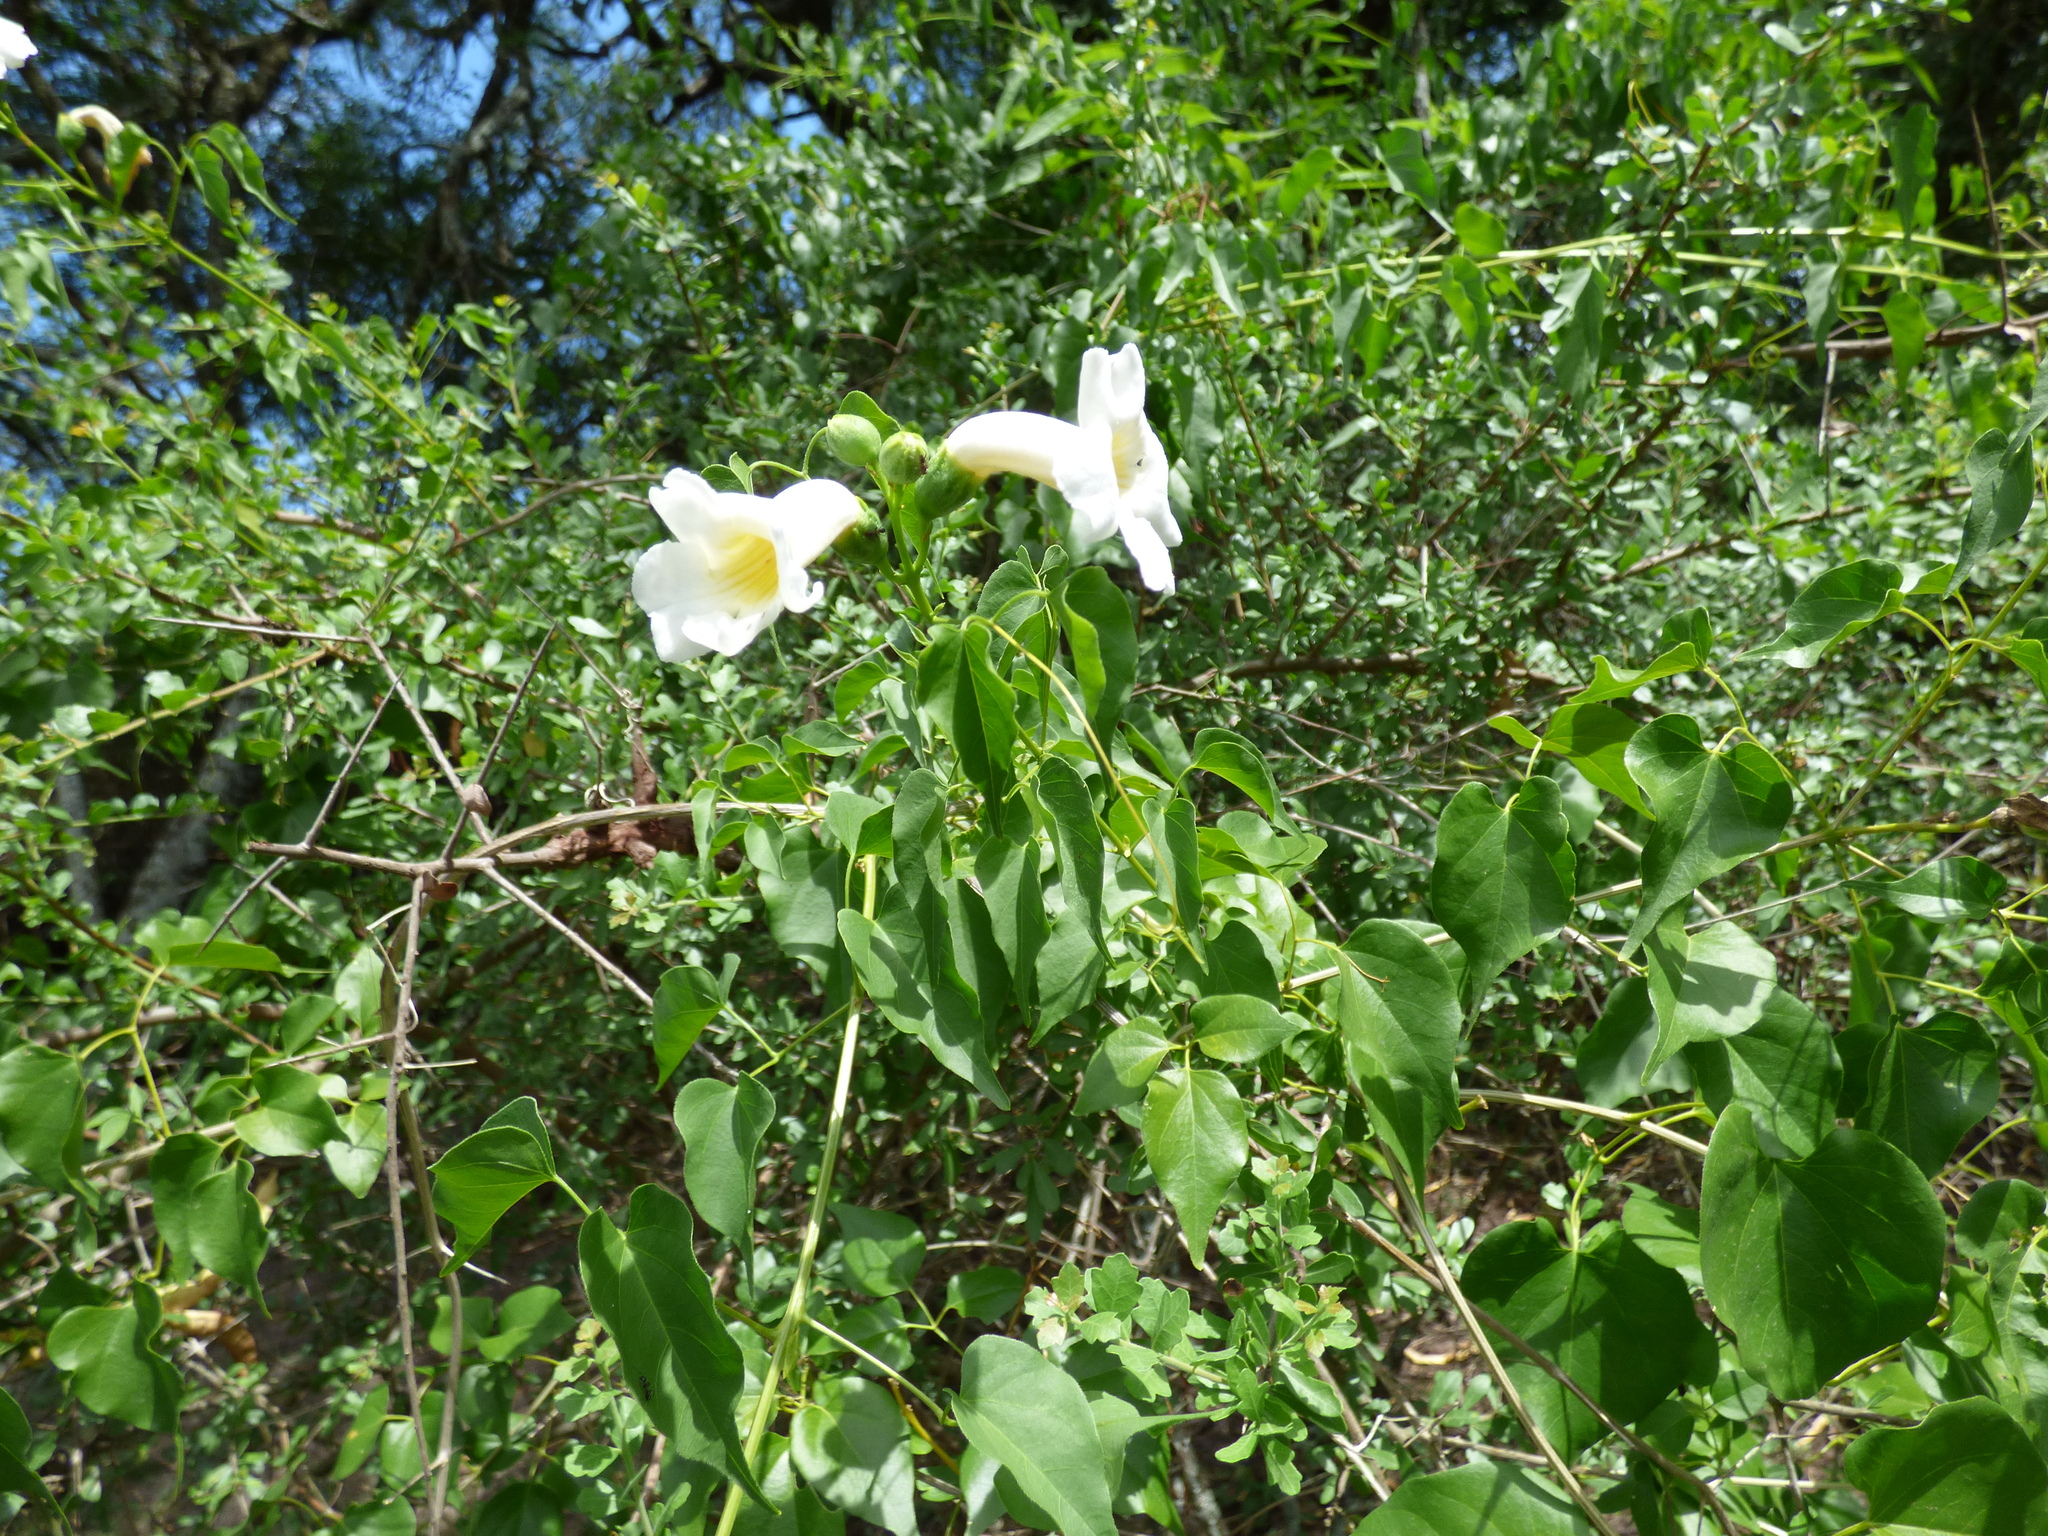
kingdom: Plantae
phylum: Tracheophyta
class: Magnoliopsida
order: Lamiales
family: Bignoniaceae
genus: Amphilophium
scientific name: Amphilophium carolinae
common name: Monkey's-comb
